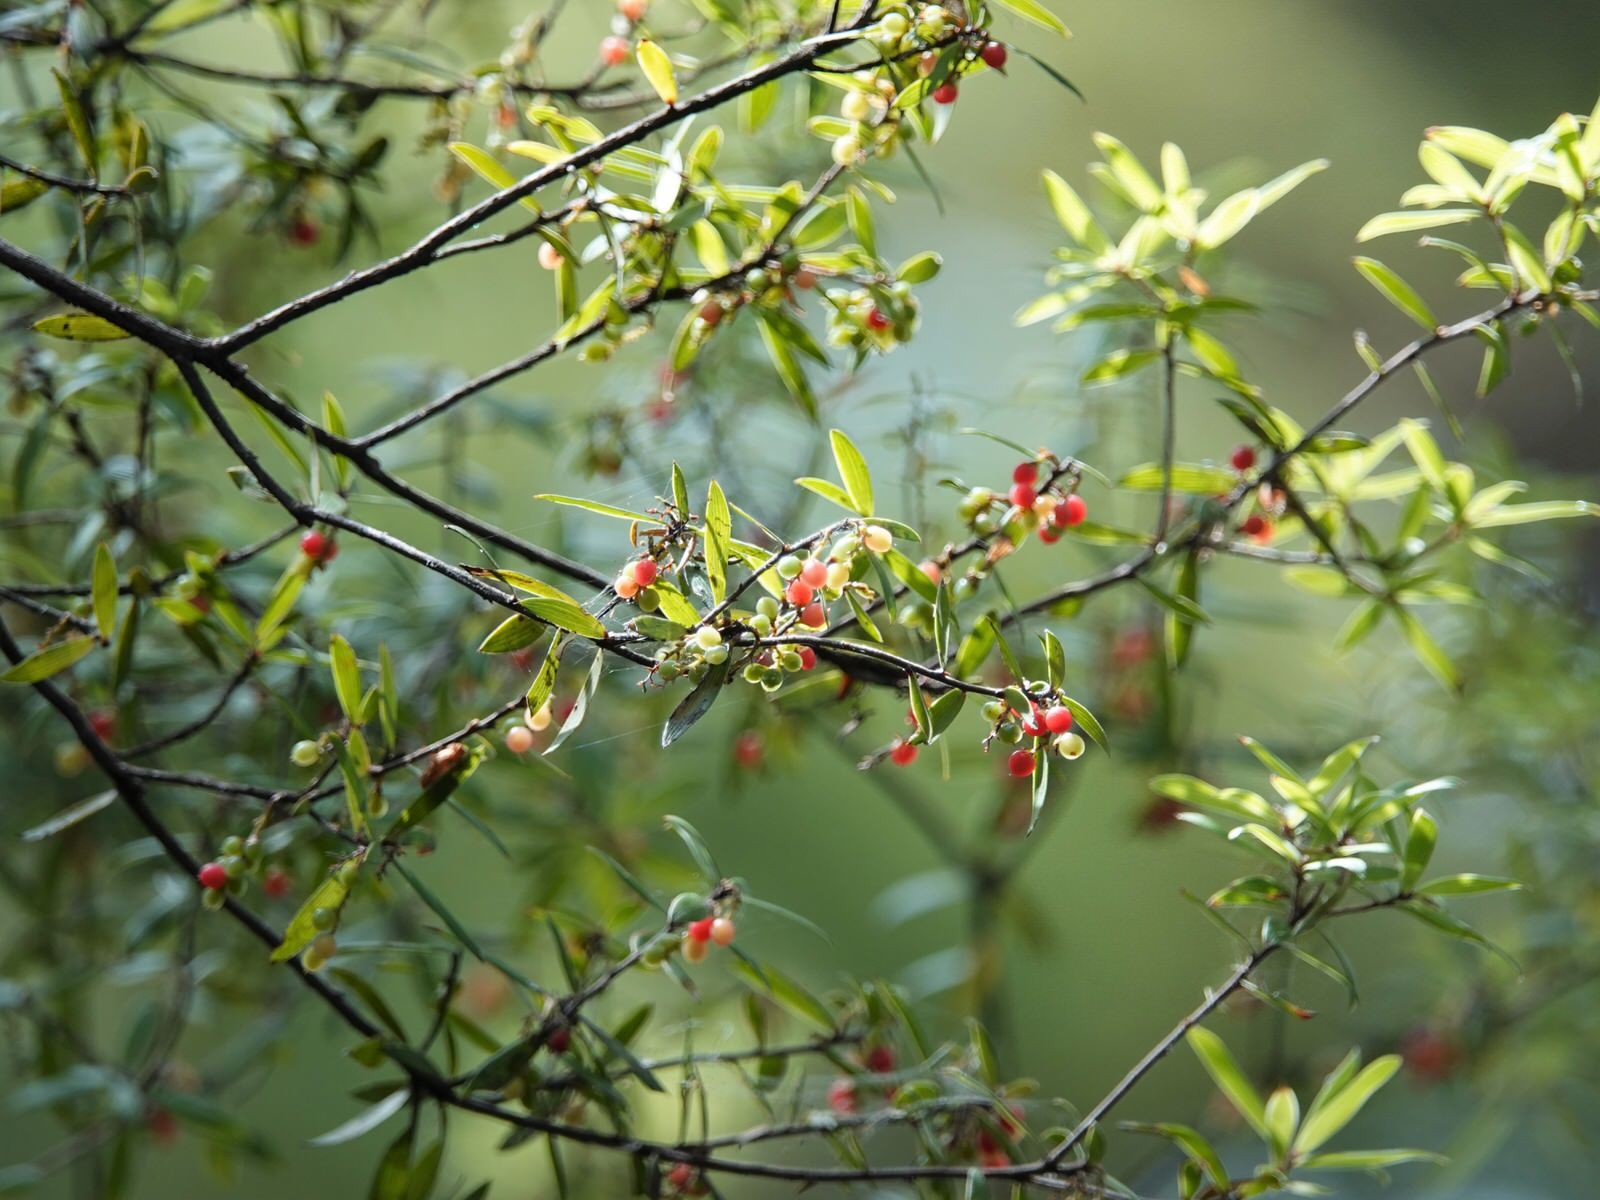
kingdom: Plantae
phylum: Tracheophyta
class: Magnoliopsida
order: Ericales
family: Ericaceae
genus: Leucopogon
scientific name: Leucopogon fasciculatus
